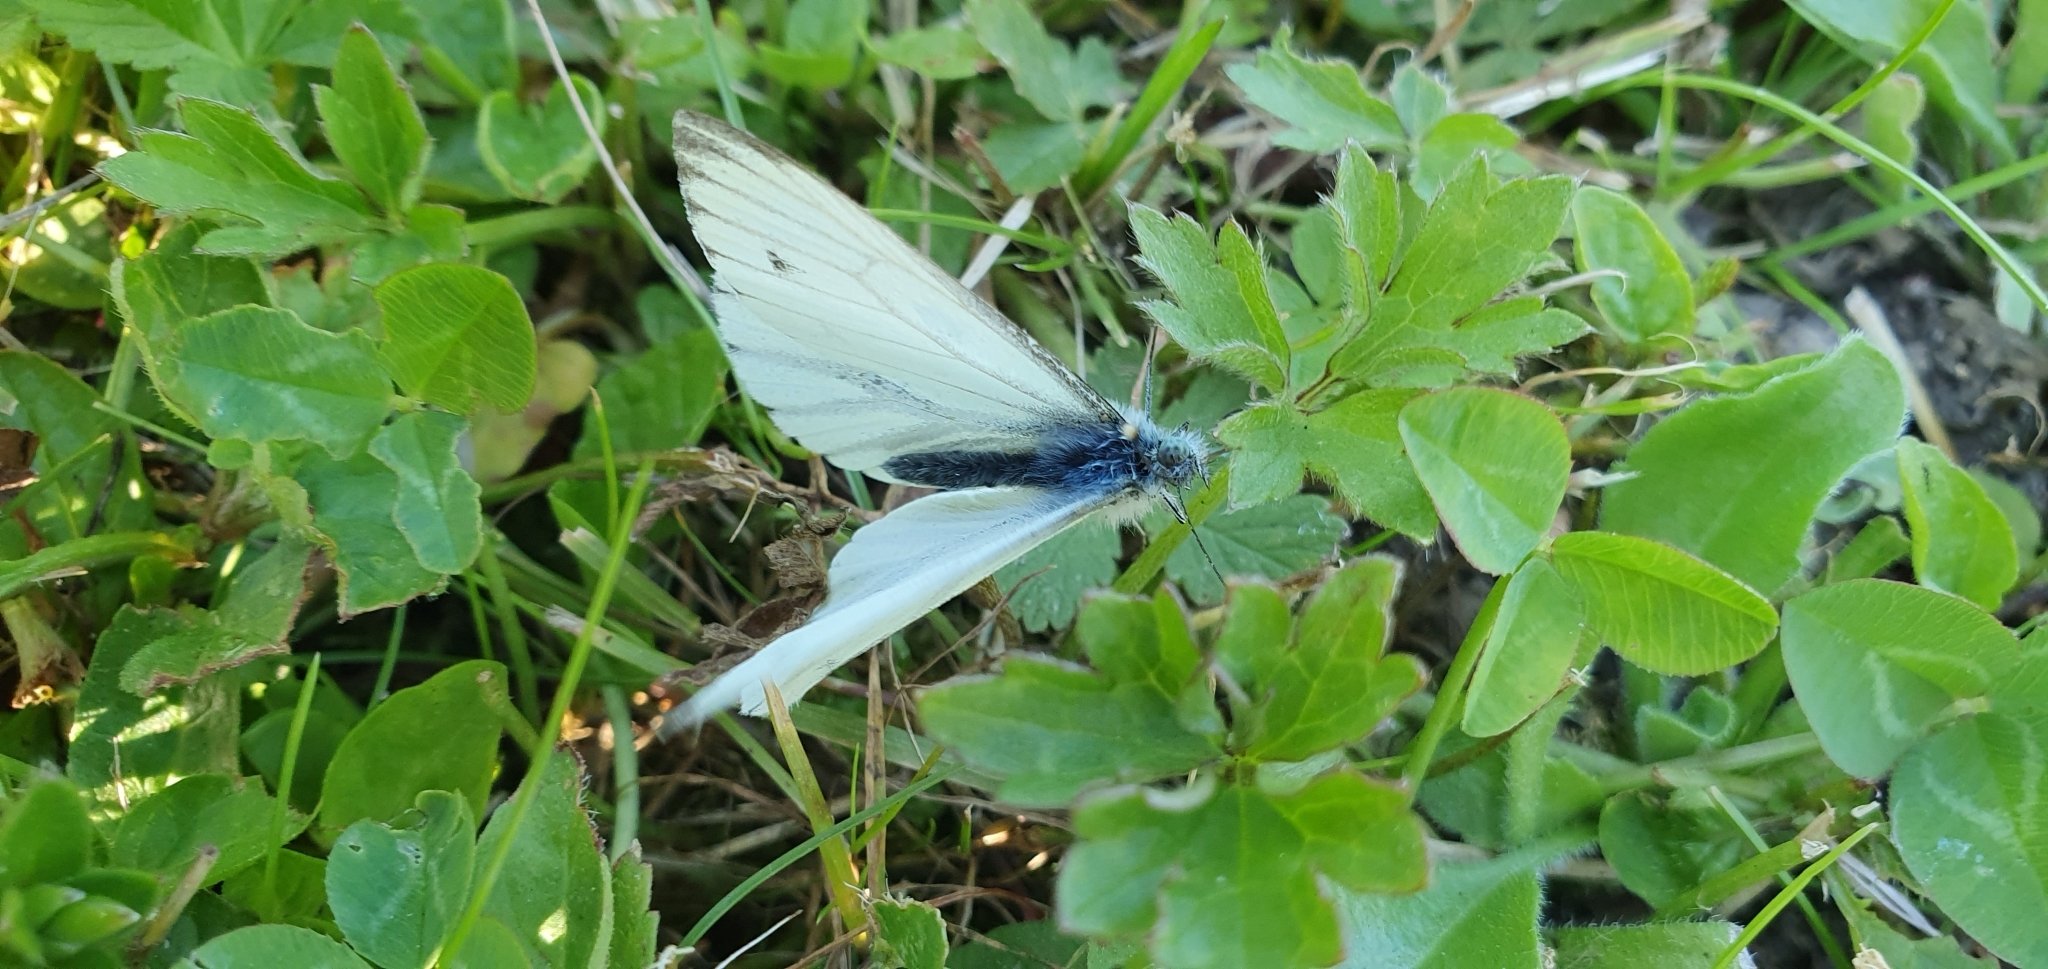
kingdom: Animalia
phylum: Arthropoda
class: Insecta
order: Lepidoptera
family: Pieridae
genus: Pieris
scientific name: Pieris napi
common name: Green-veined white
